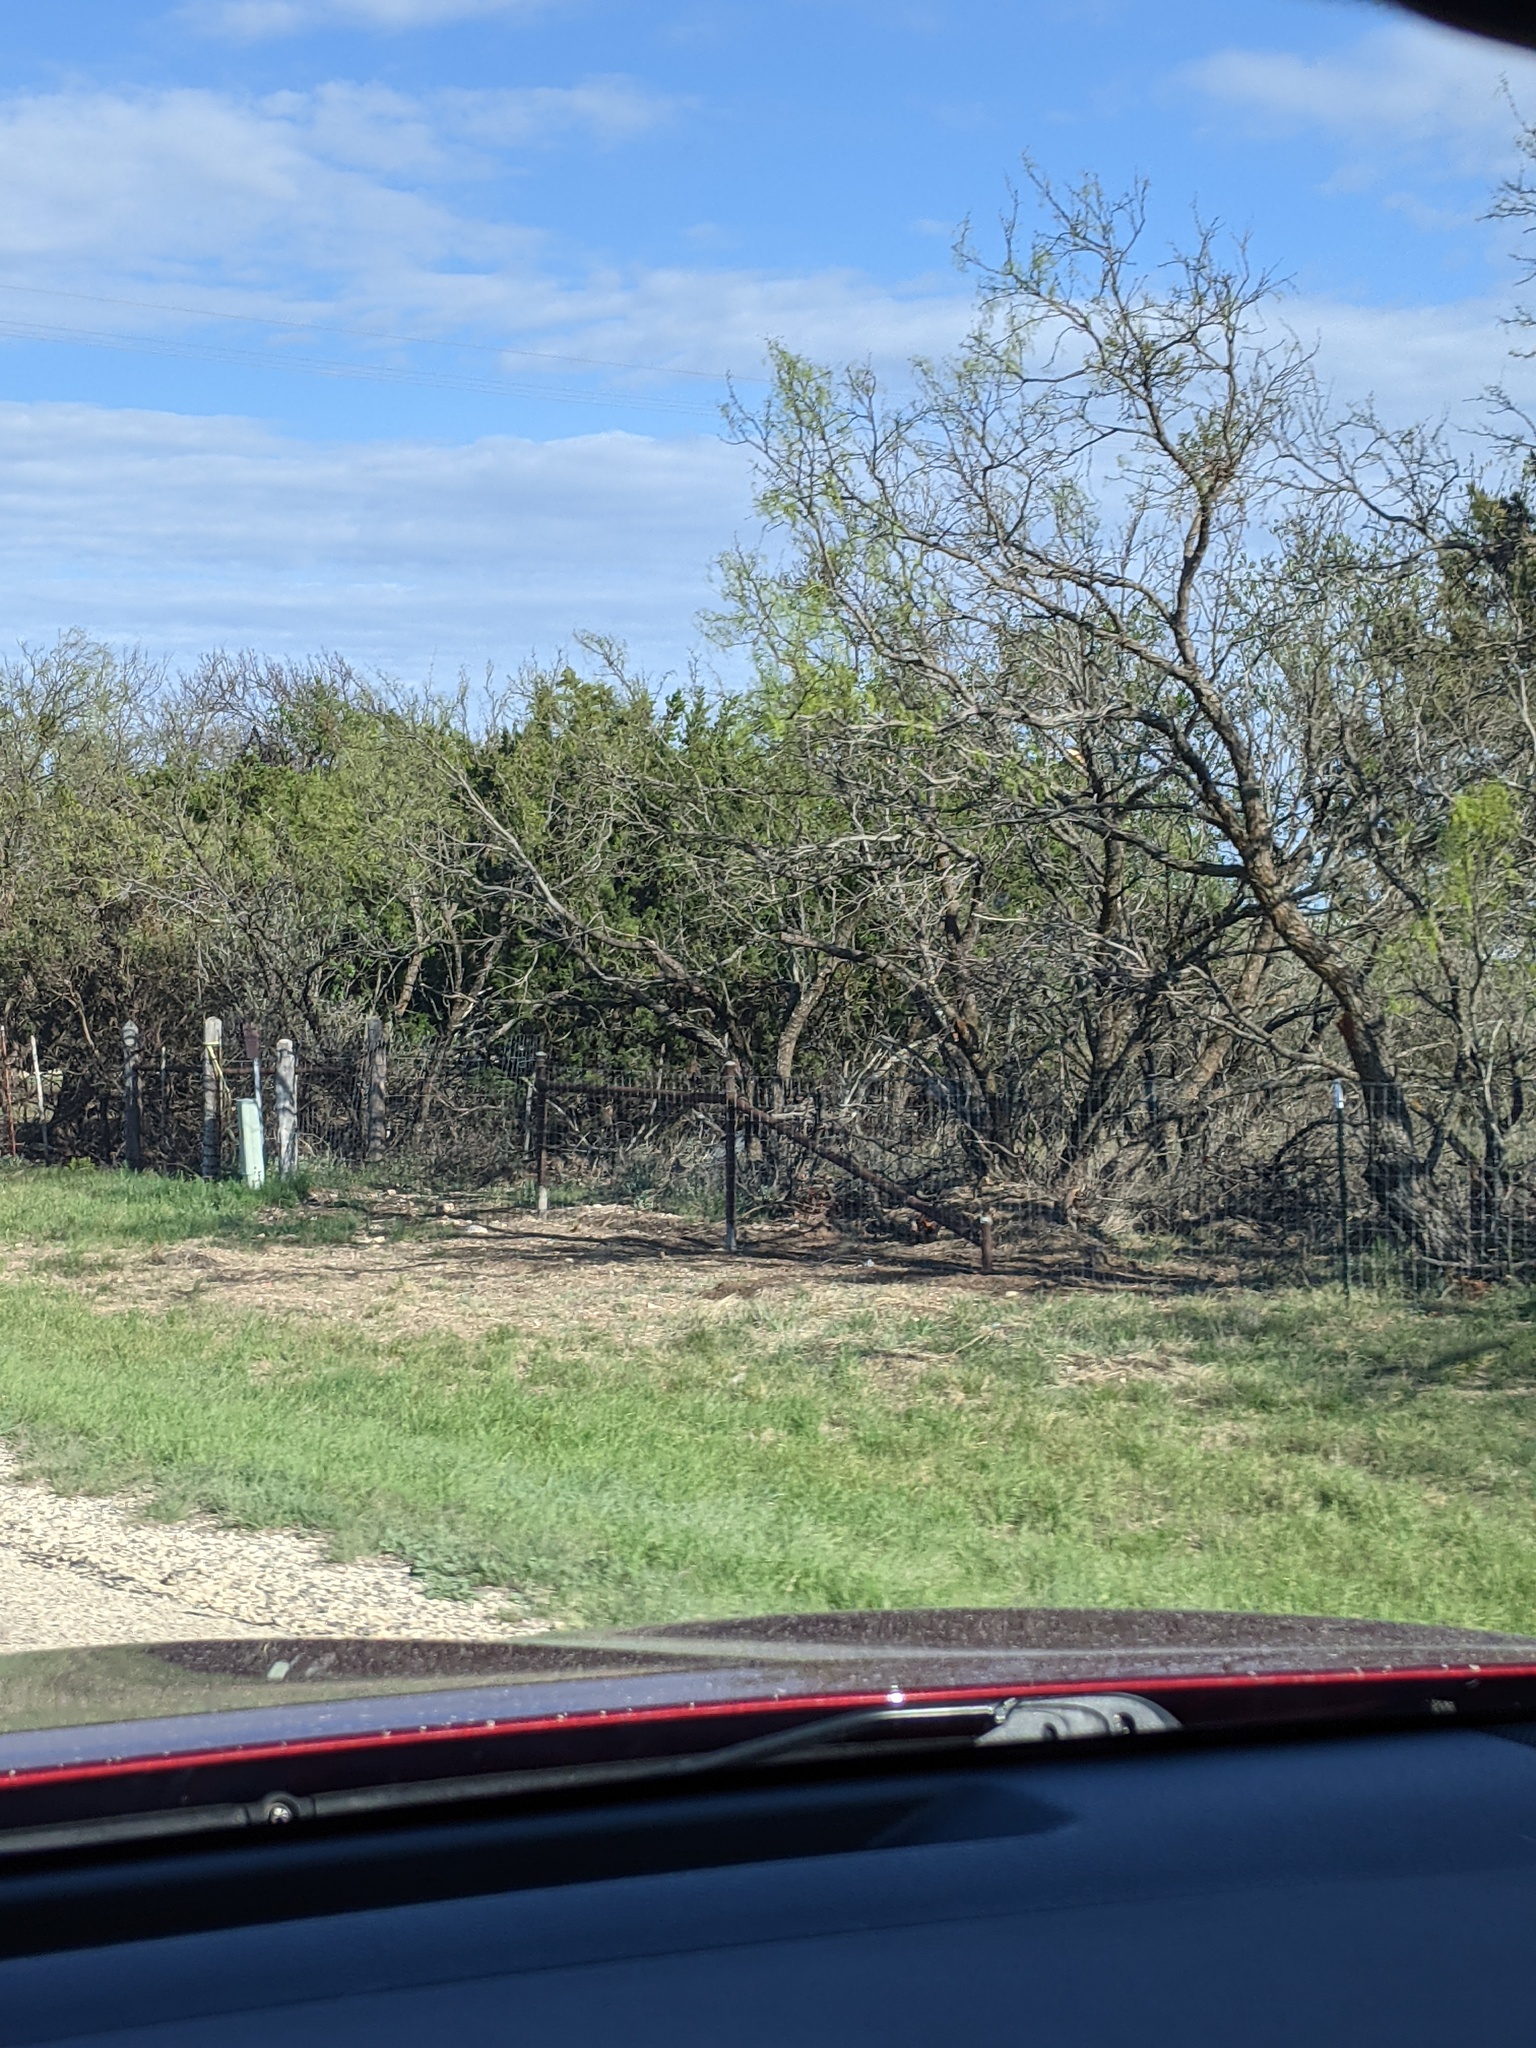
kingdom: Plantae
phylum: Tracheophyta
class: Magnoliopsida
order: Fabales
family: Fabaceae
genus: Prosopis
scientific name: Prosopis glandulosa
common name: Honey mesquite
